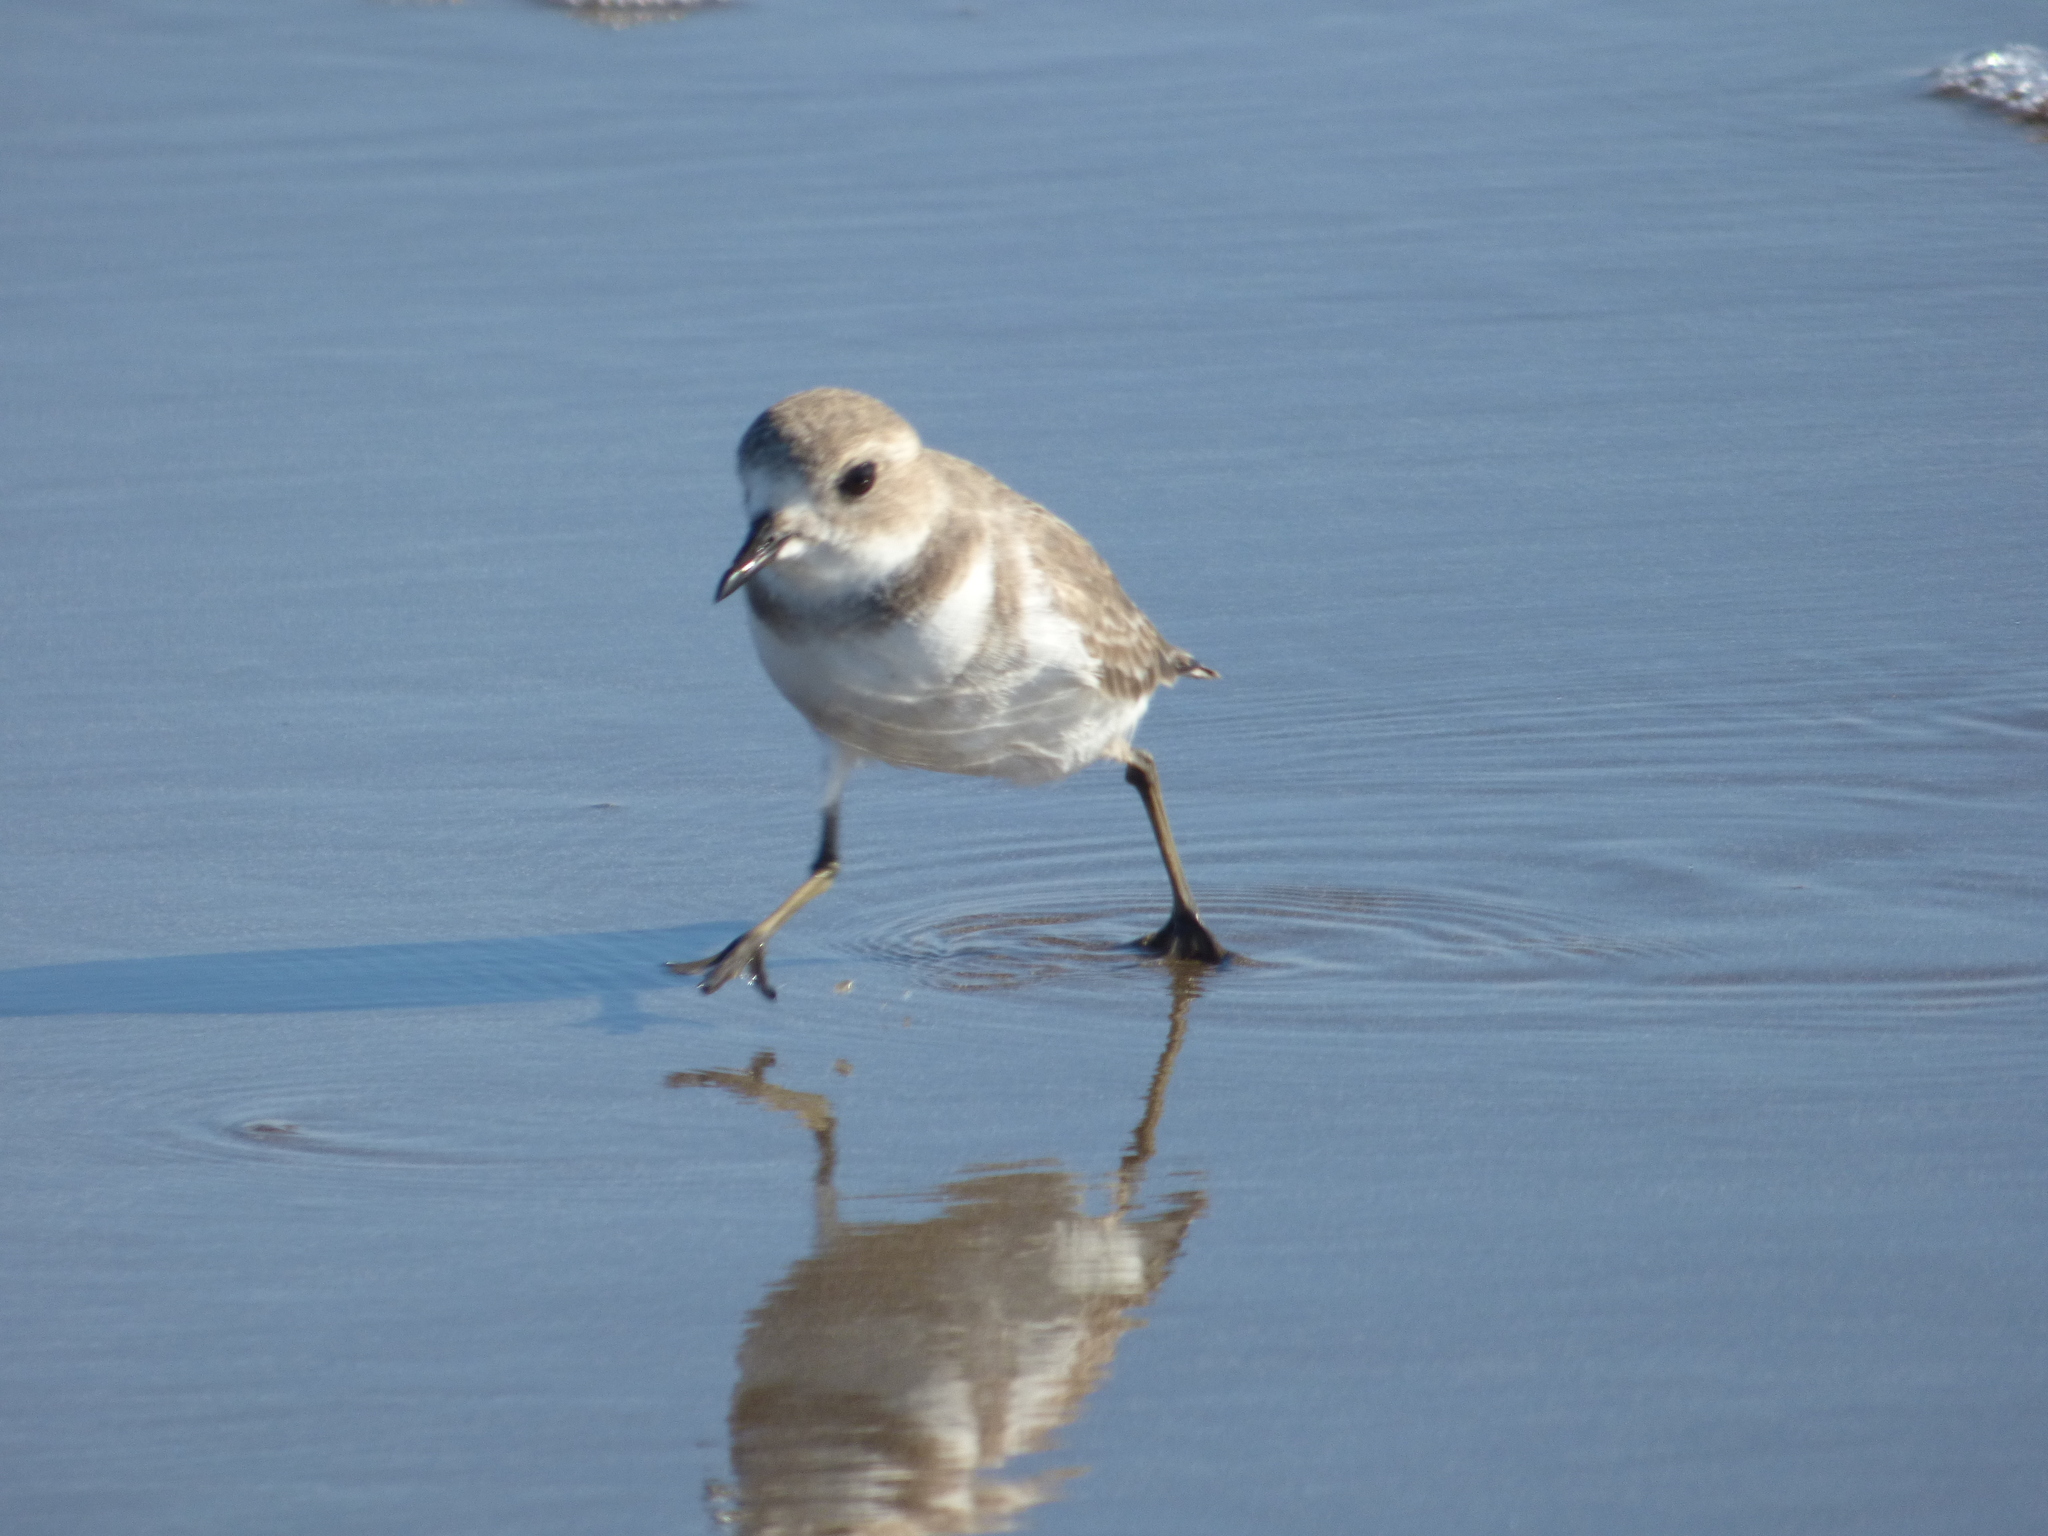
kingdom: Animalia
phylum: Chordata
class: Aves
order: Charadriiformes
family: Charadriidae
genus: Anarhynchus
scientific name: Anarhynchus
